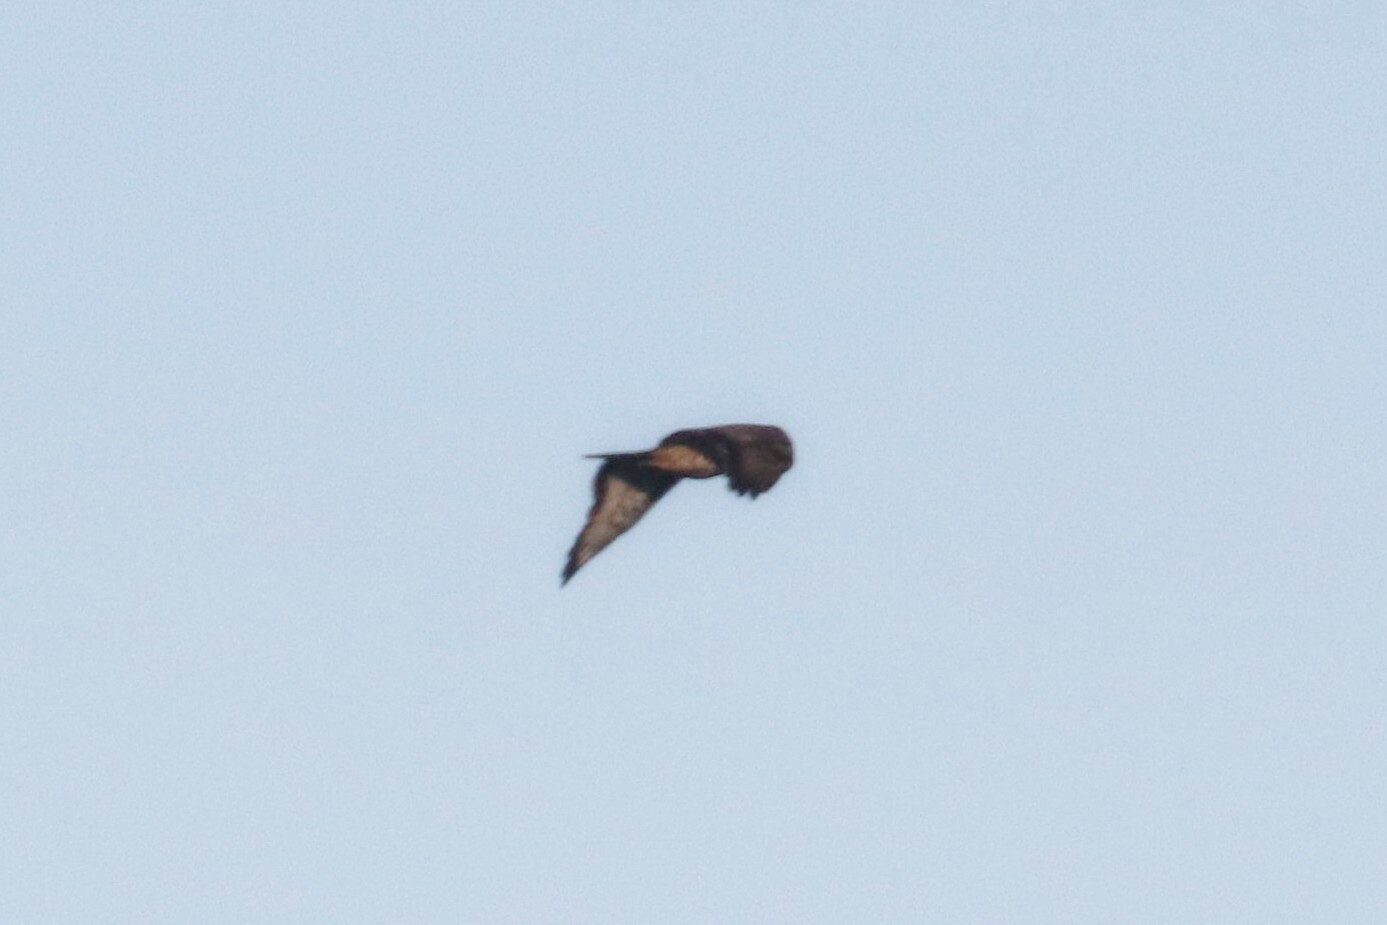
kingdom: Animalia
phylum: Chordata
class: Aves
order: Accipitriformes
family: Accipitridae
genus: Pernis
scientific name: Pernis apivorus
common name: European honey buzzard
